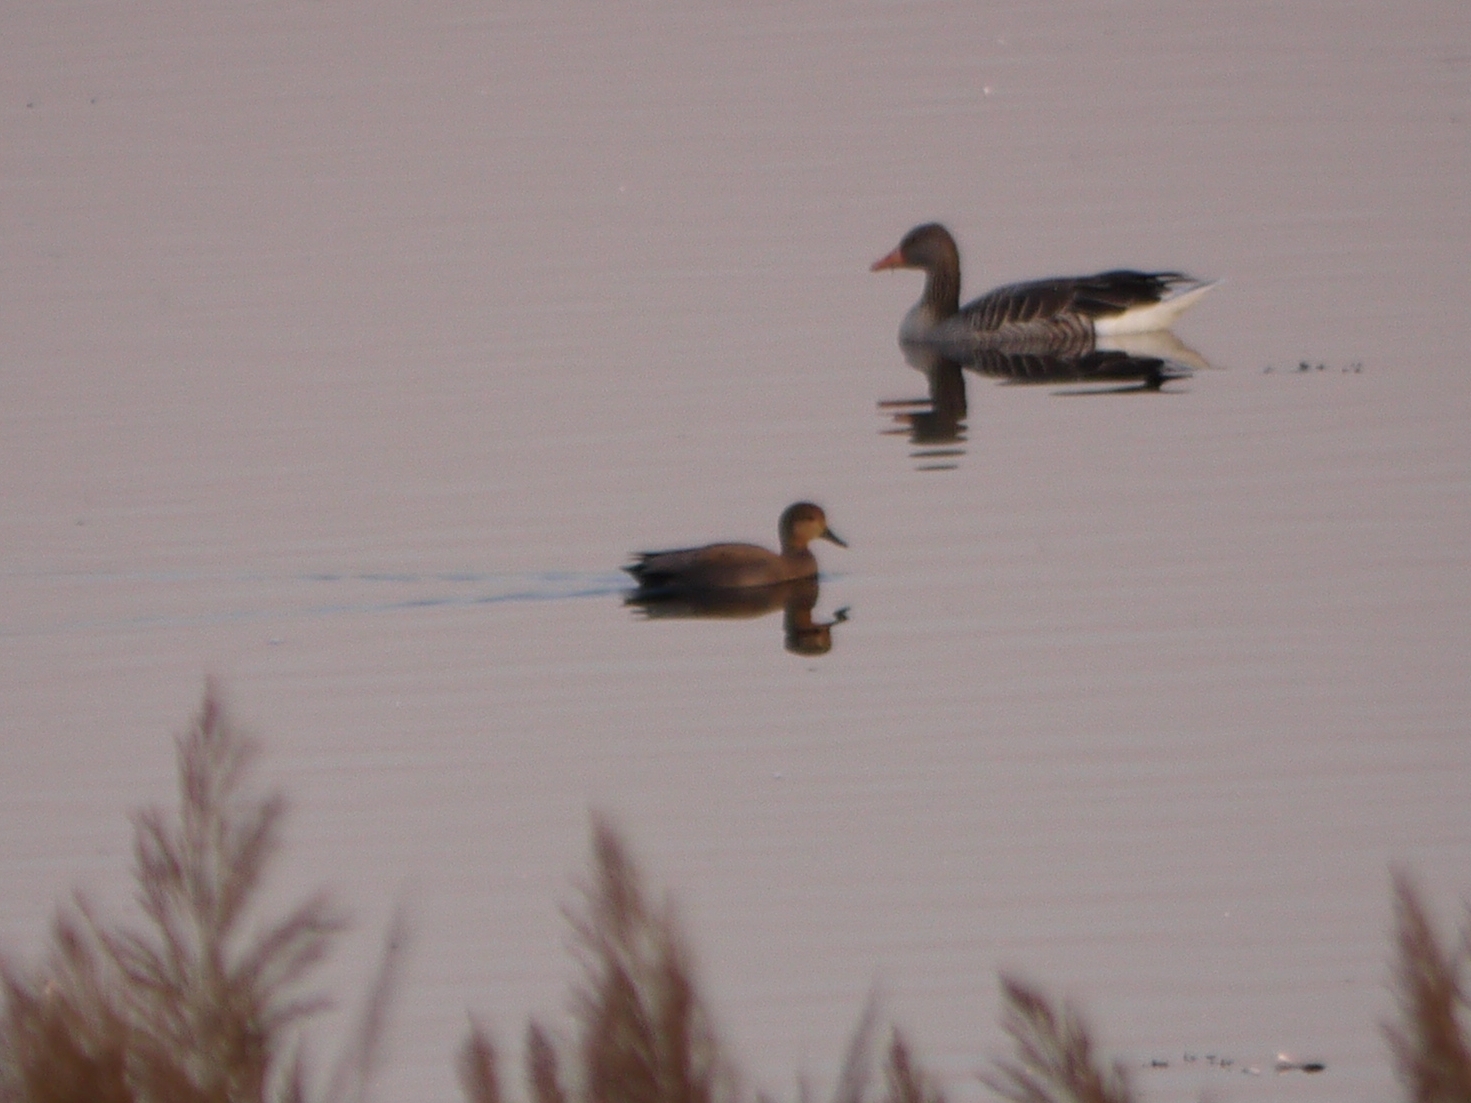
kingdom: Animalia
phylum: Chordata
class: Aves
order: Anseriformes
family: Anatidae
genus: Mareca
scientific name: Mareca strepera
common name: Gadwall
